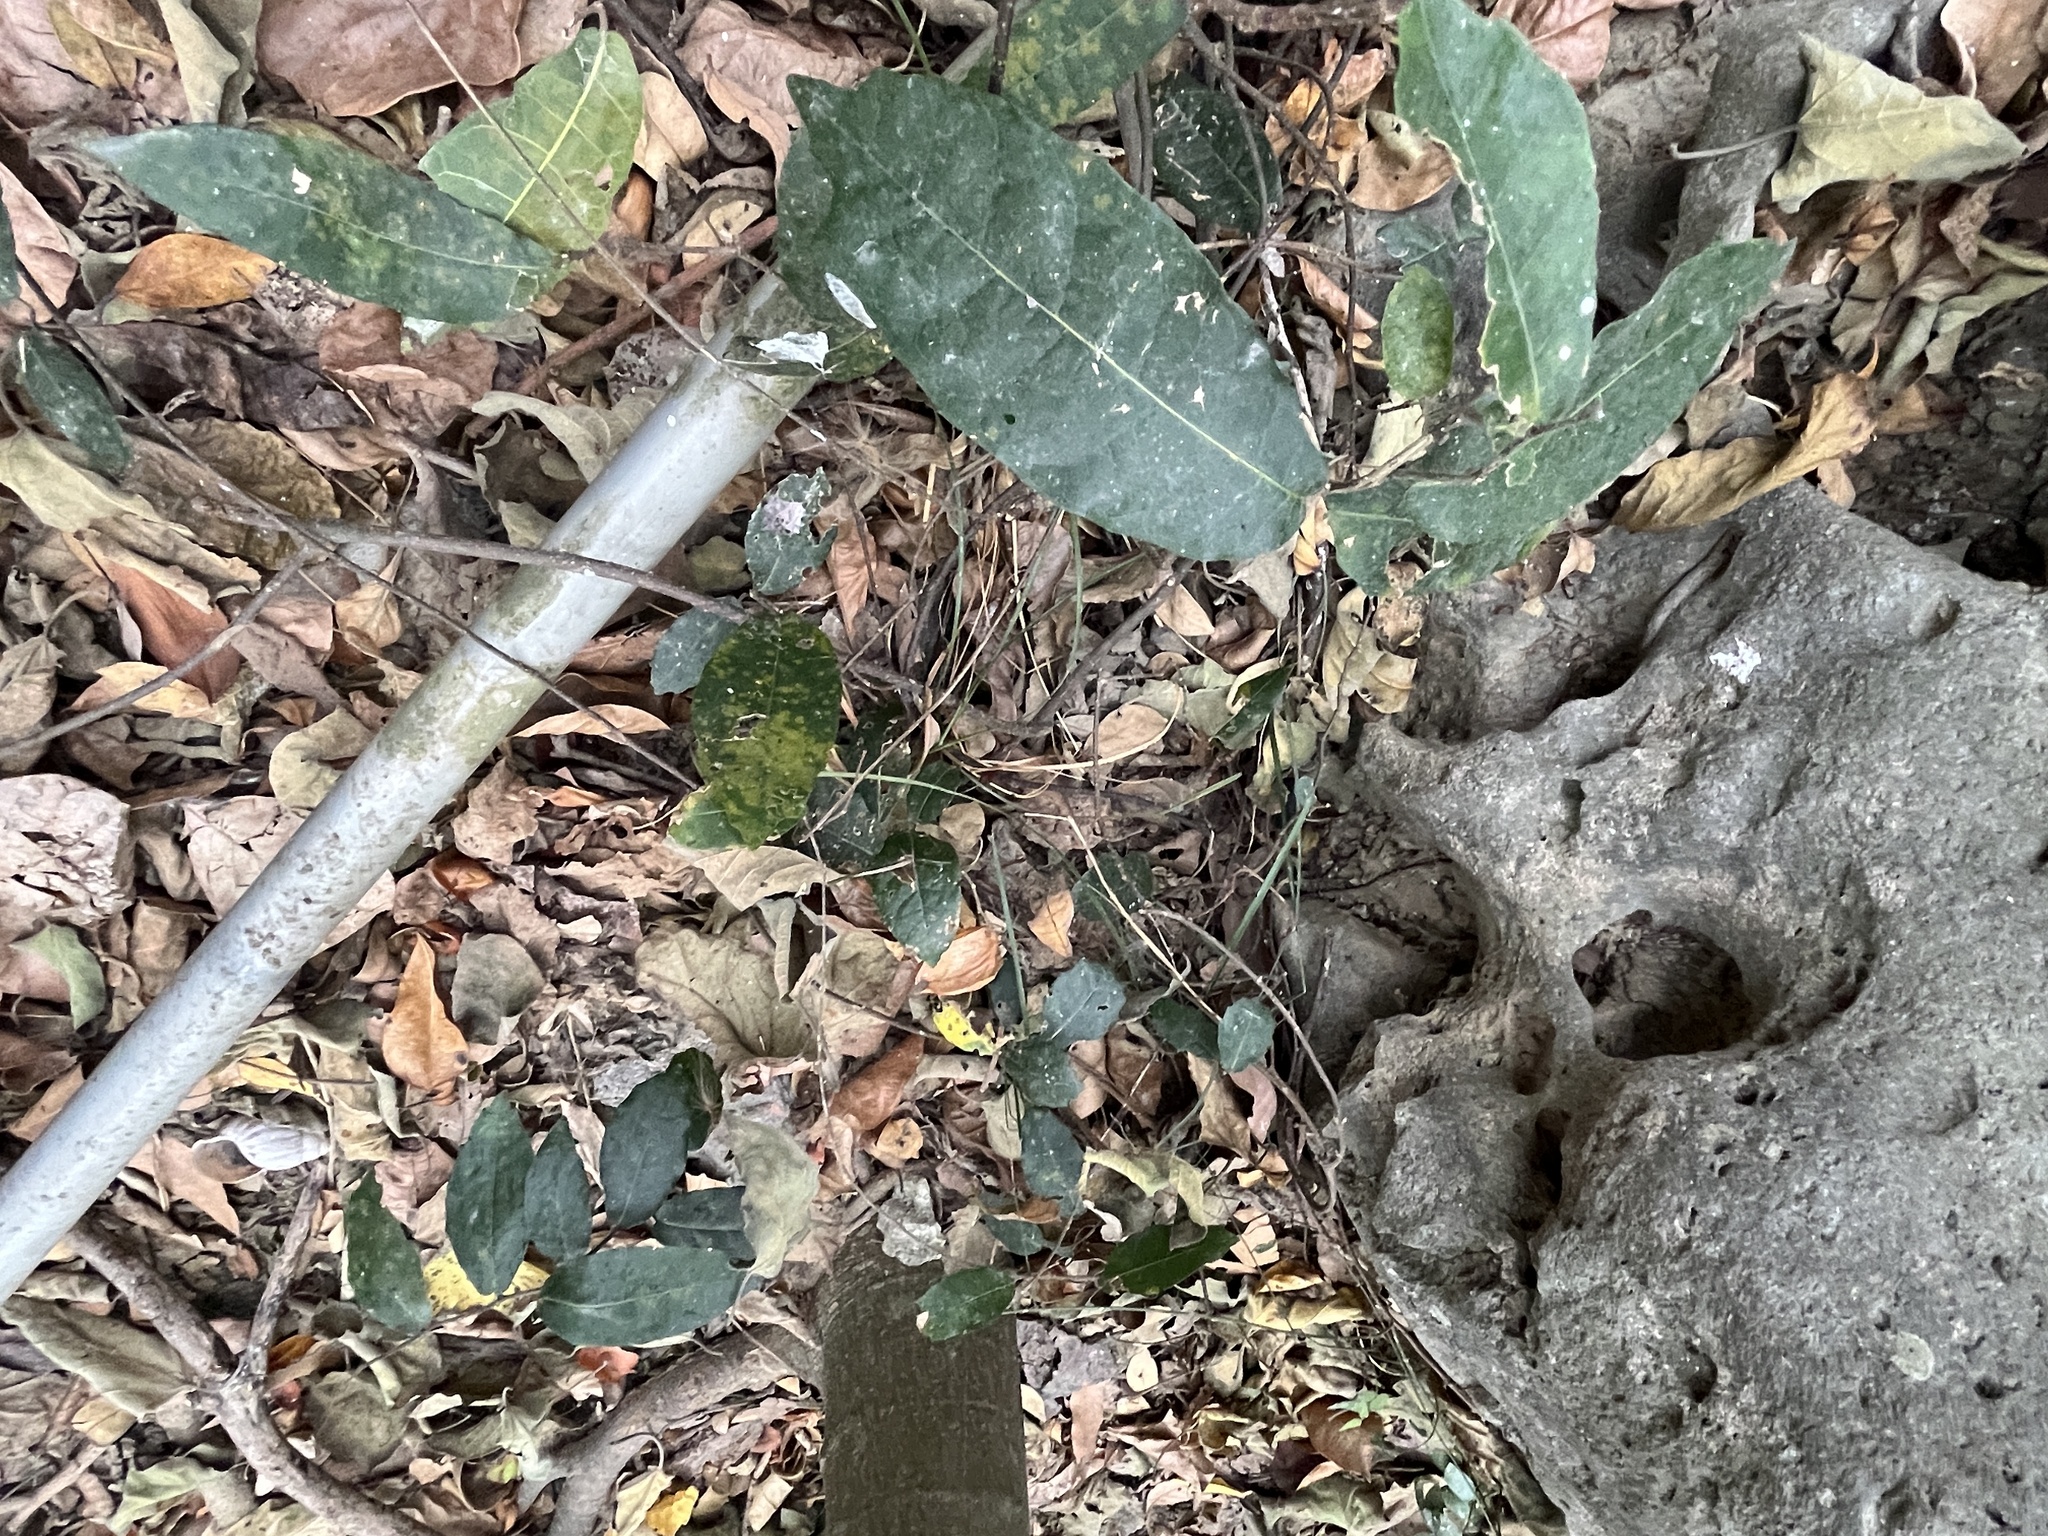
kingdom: Plantae
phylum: Tracheophyta
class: Magnoliopsida
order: Rosales
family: Moraceae
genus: Malaisia
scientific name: Malaisia scandens
